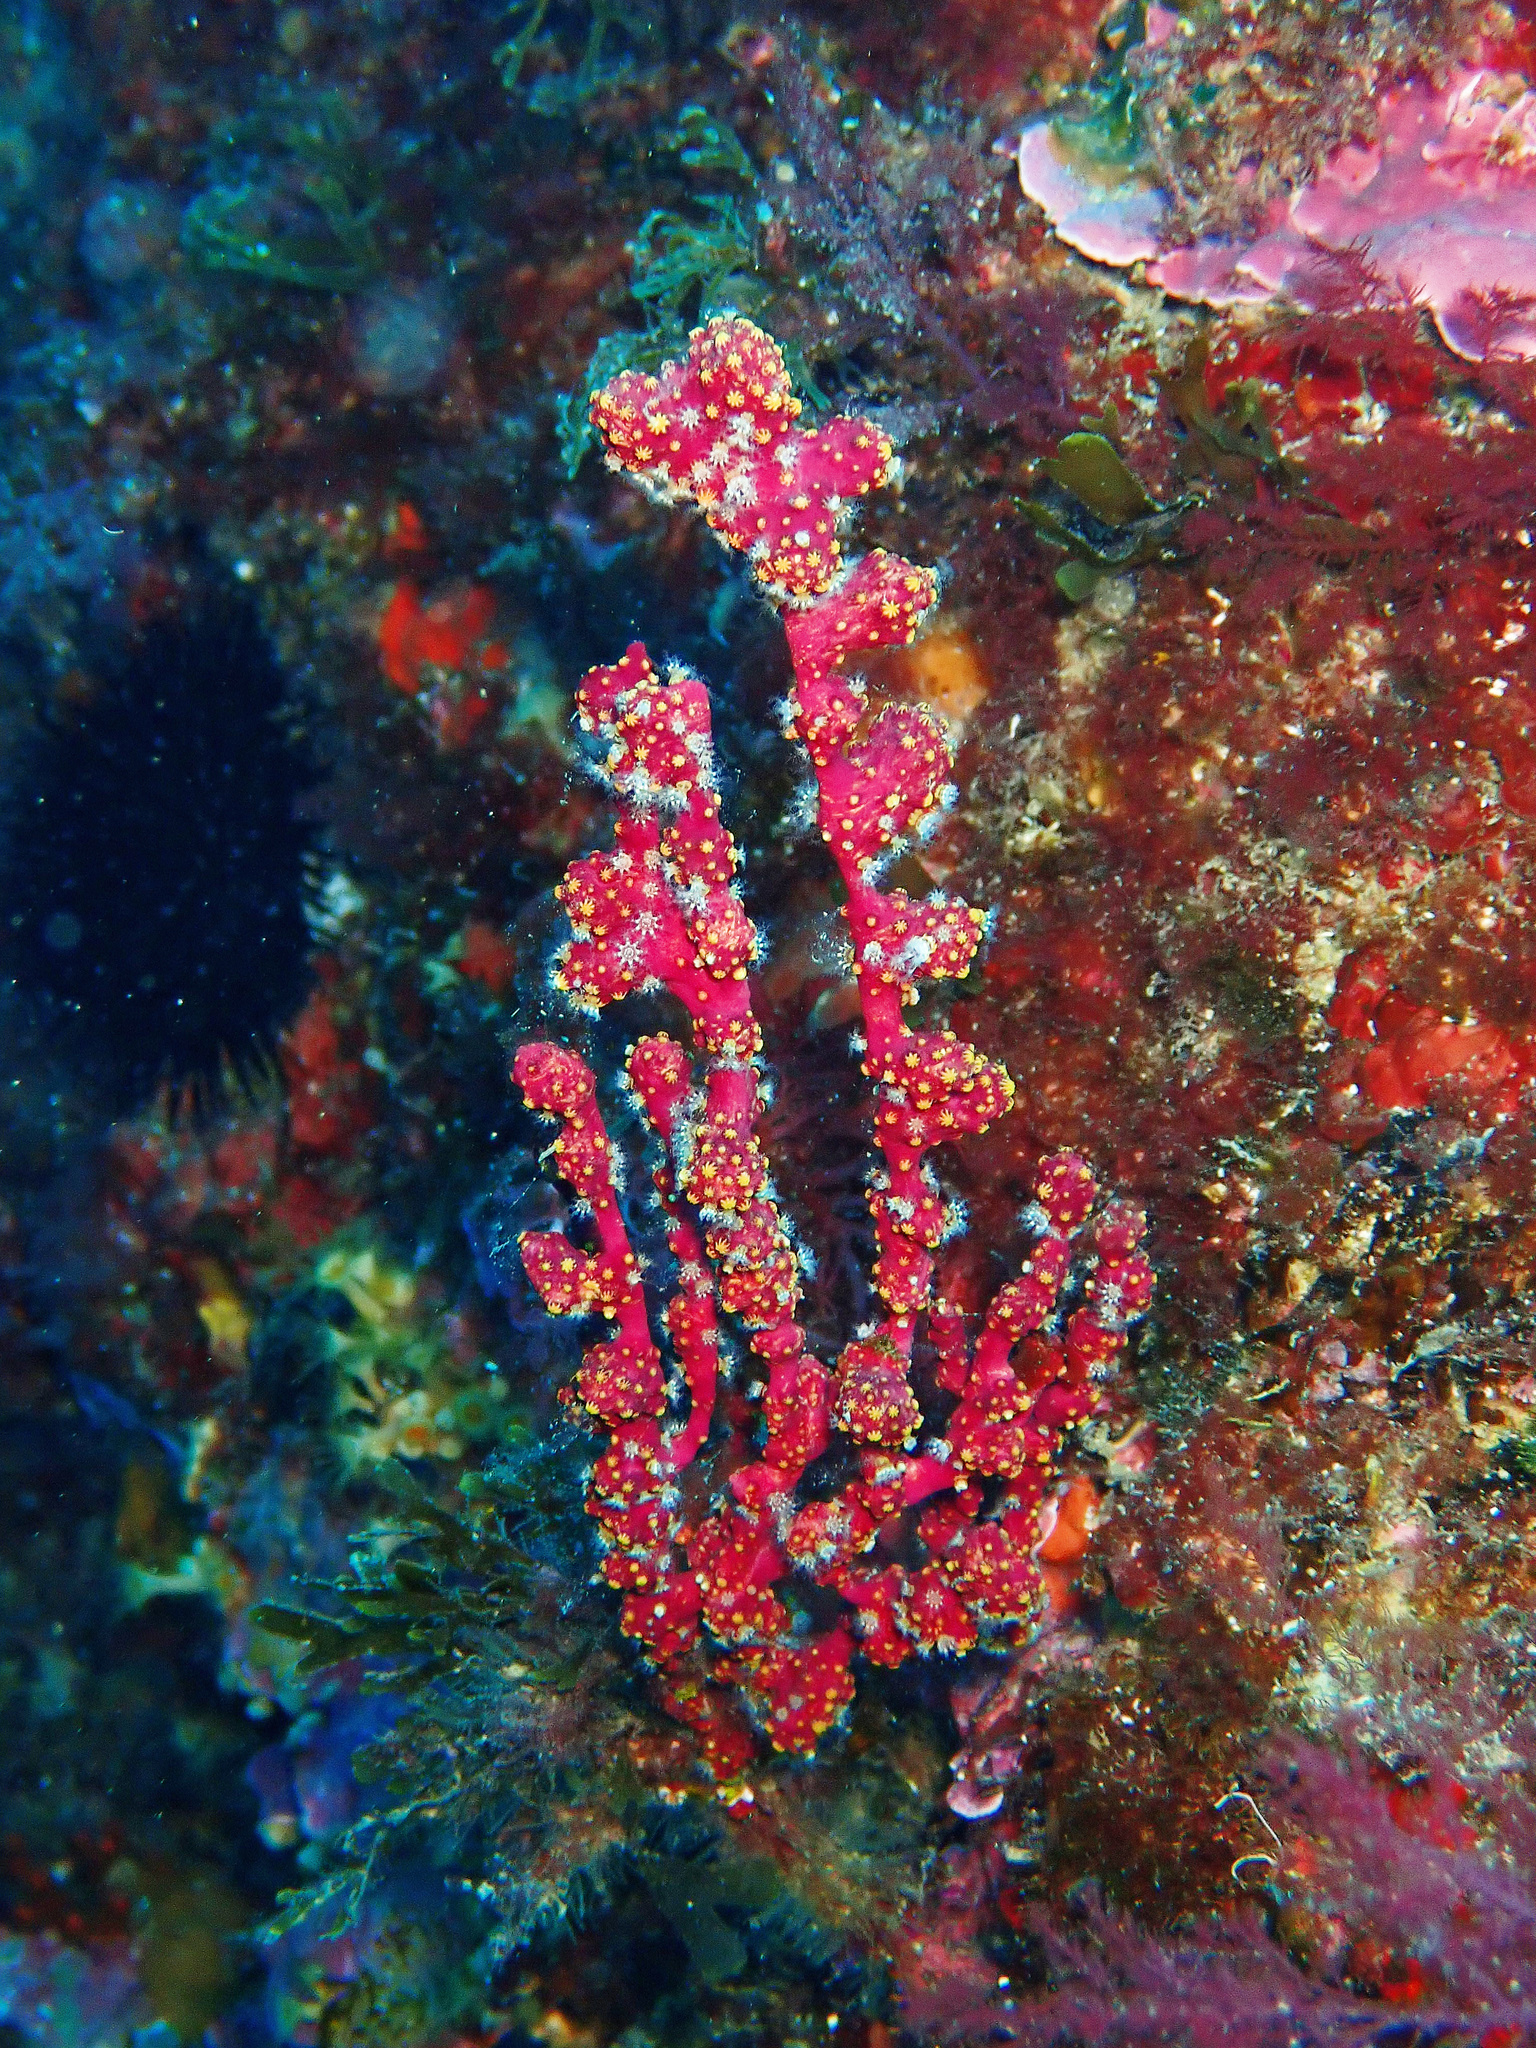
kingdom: Animalia
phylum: Cnidaria
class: Anthozoa
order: Malacalcyonacea
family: Alcyoniidae
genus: Alcyonium
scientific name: Alcyonium coralloides
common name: Soft coral
